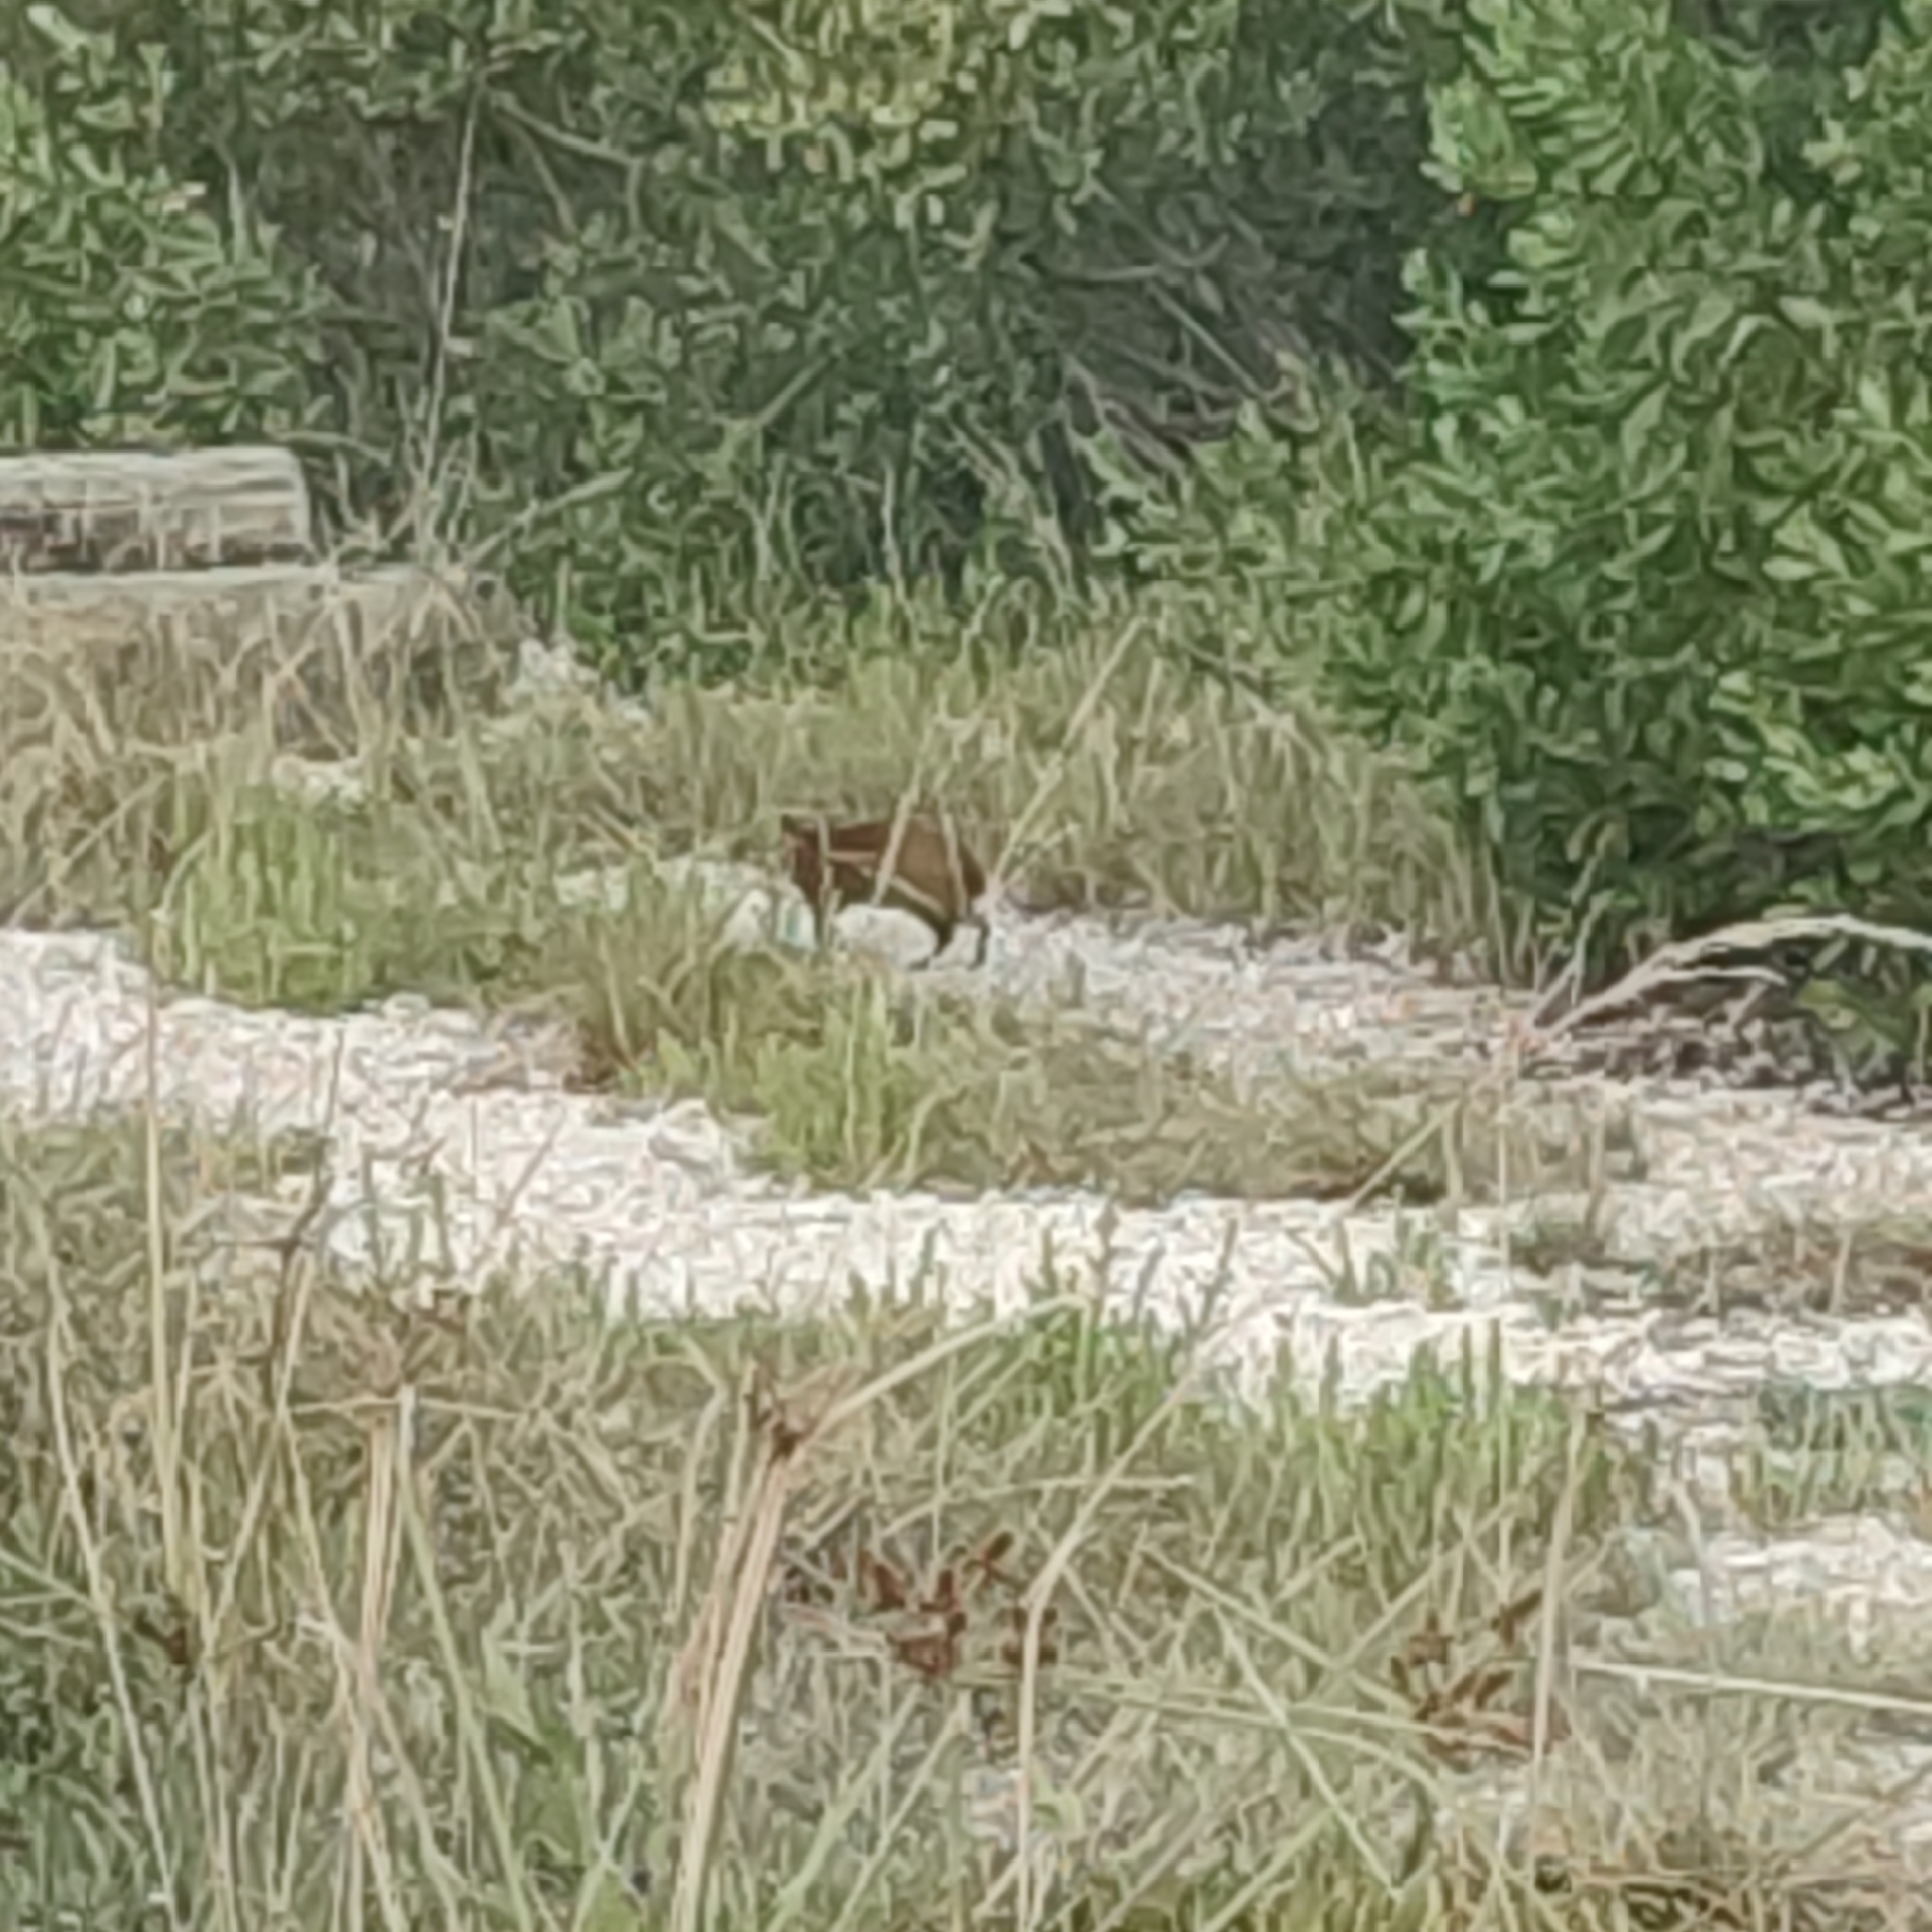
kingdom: Animalia
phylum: Chordata
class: Mammalia
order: Rodentia
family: Dasyproctidae
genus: Dasyprocta
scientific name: Dasyprocta punctata
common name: Central american agouti
